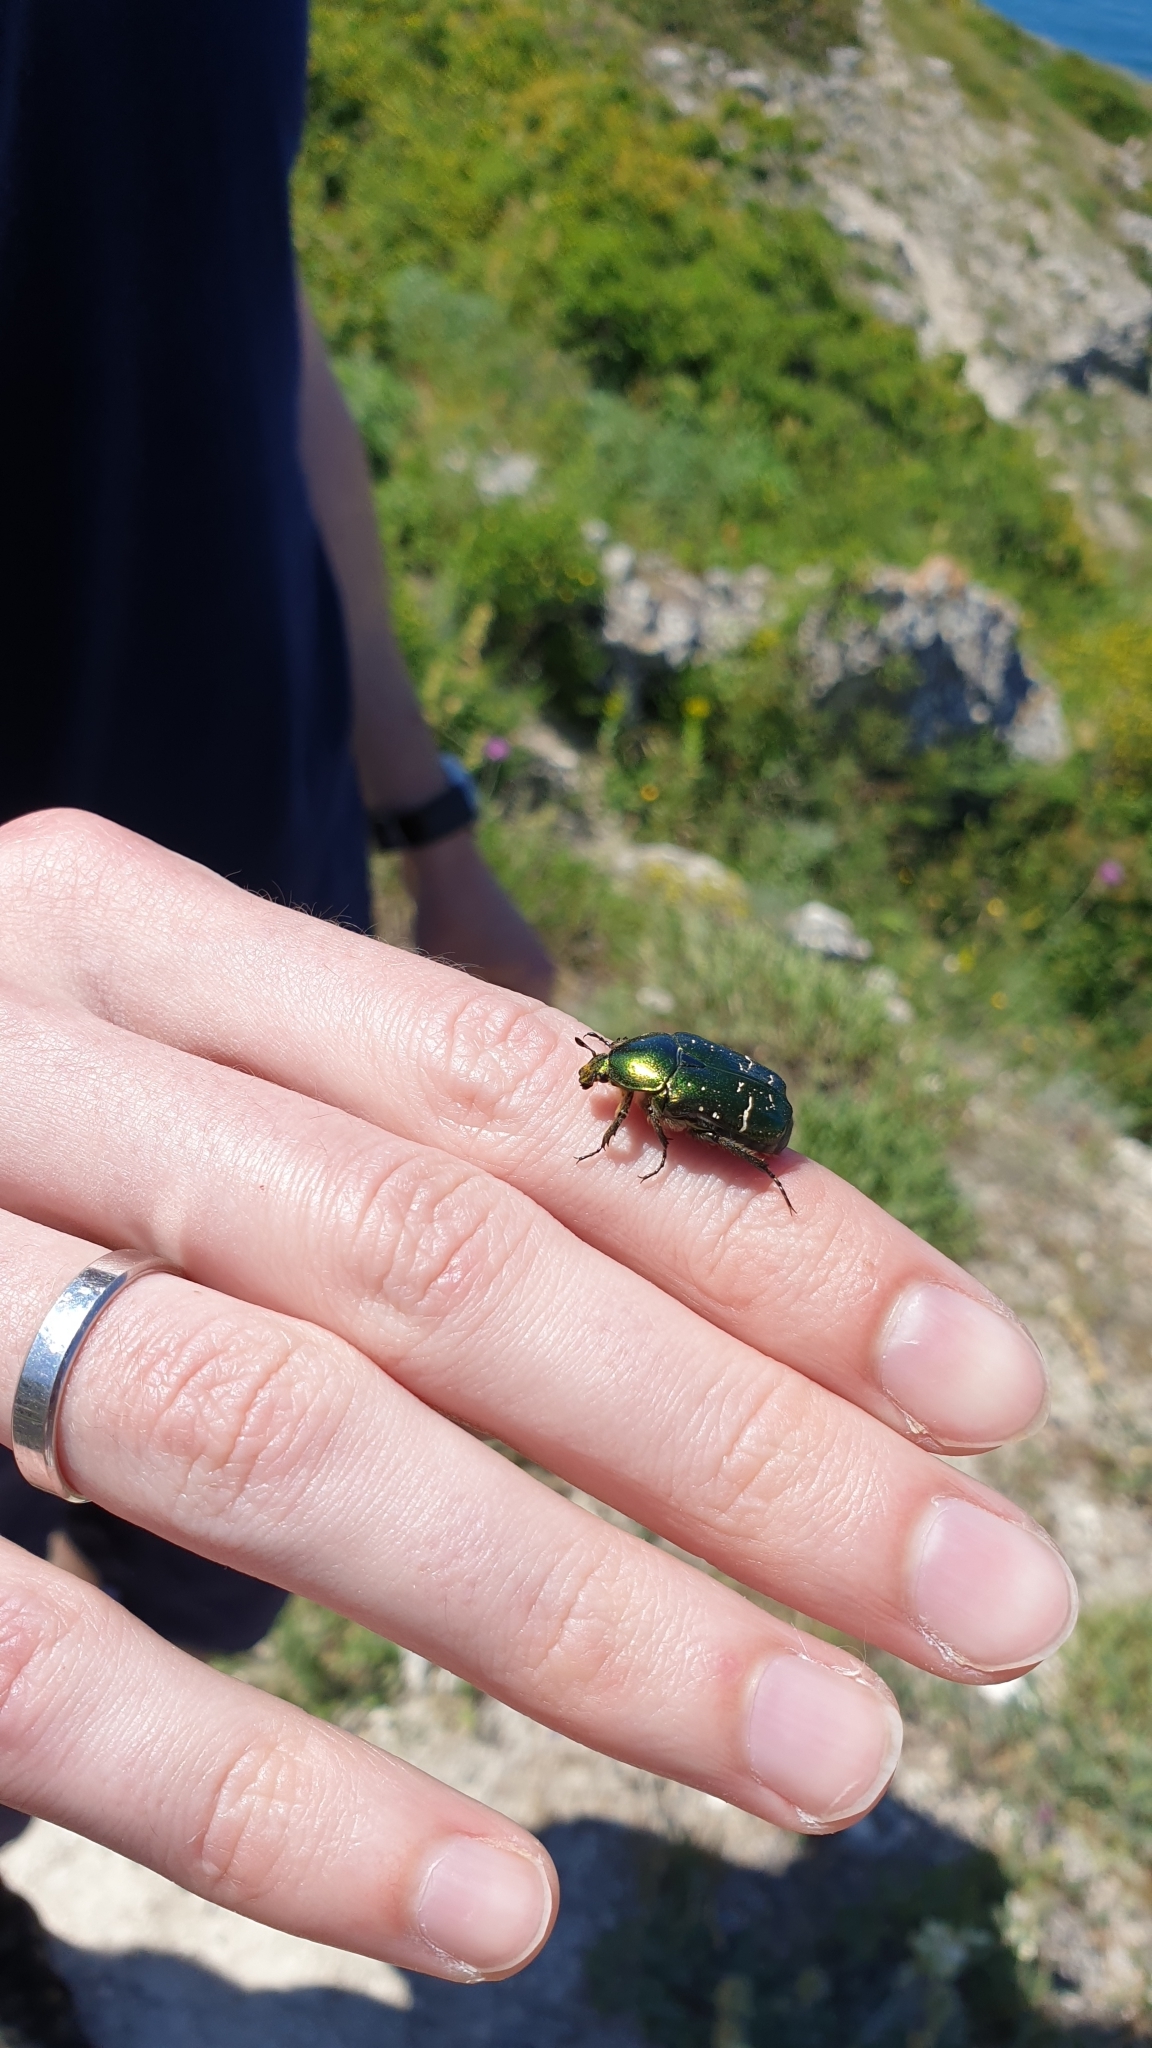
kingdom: Animalia
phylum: Arthropoda
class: Insecta
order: Coleoptera
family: Scarabaeidae
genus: Cetonia
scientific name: Cetonia aurata
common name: Rose chafer
